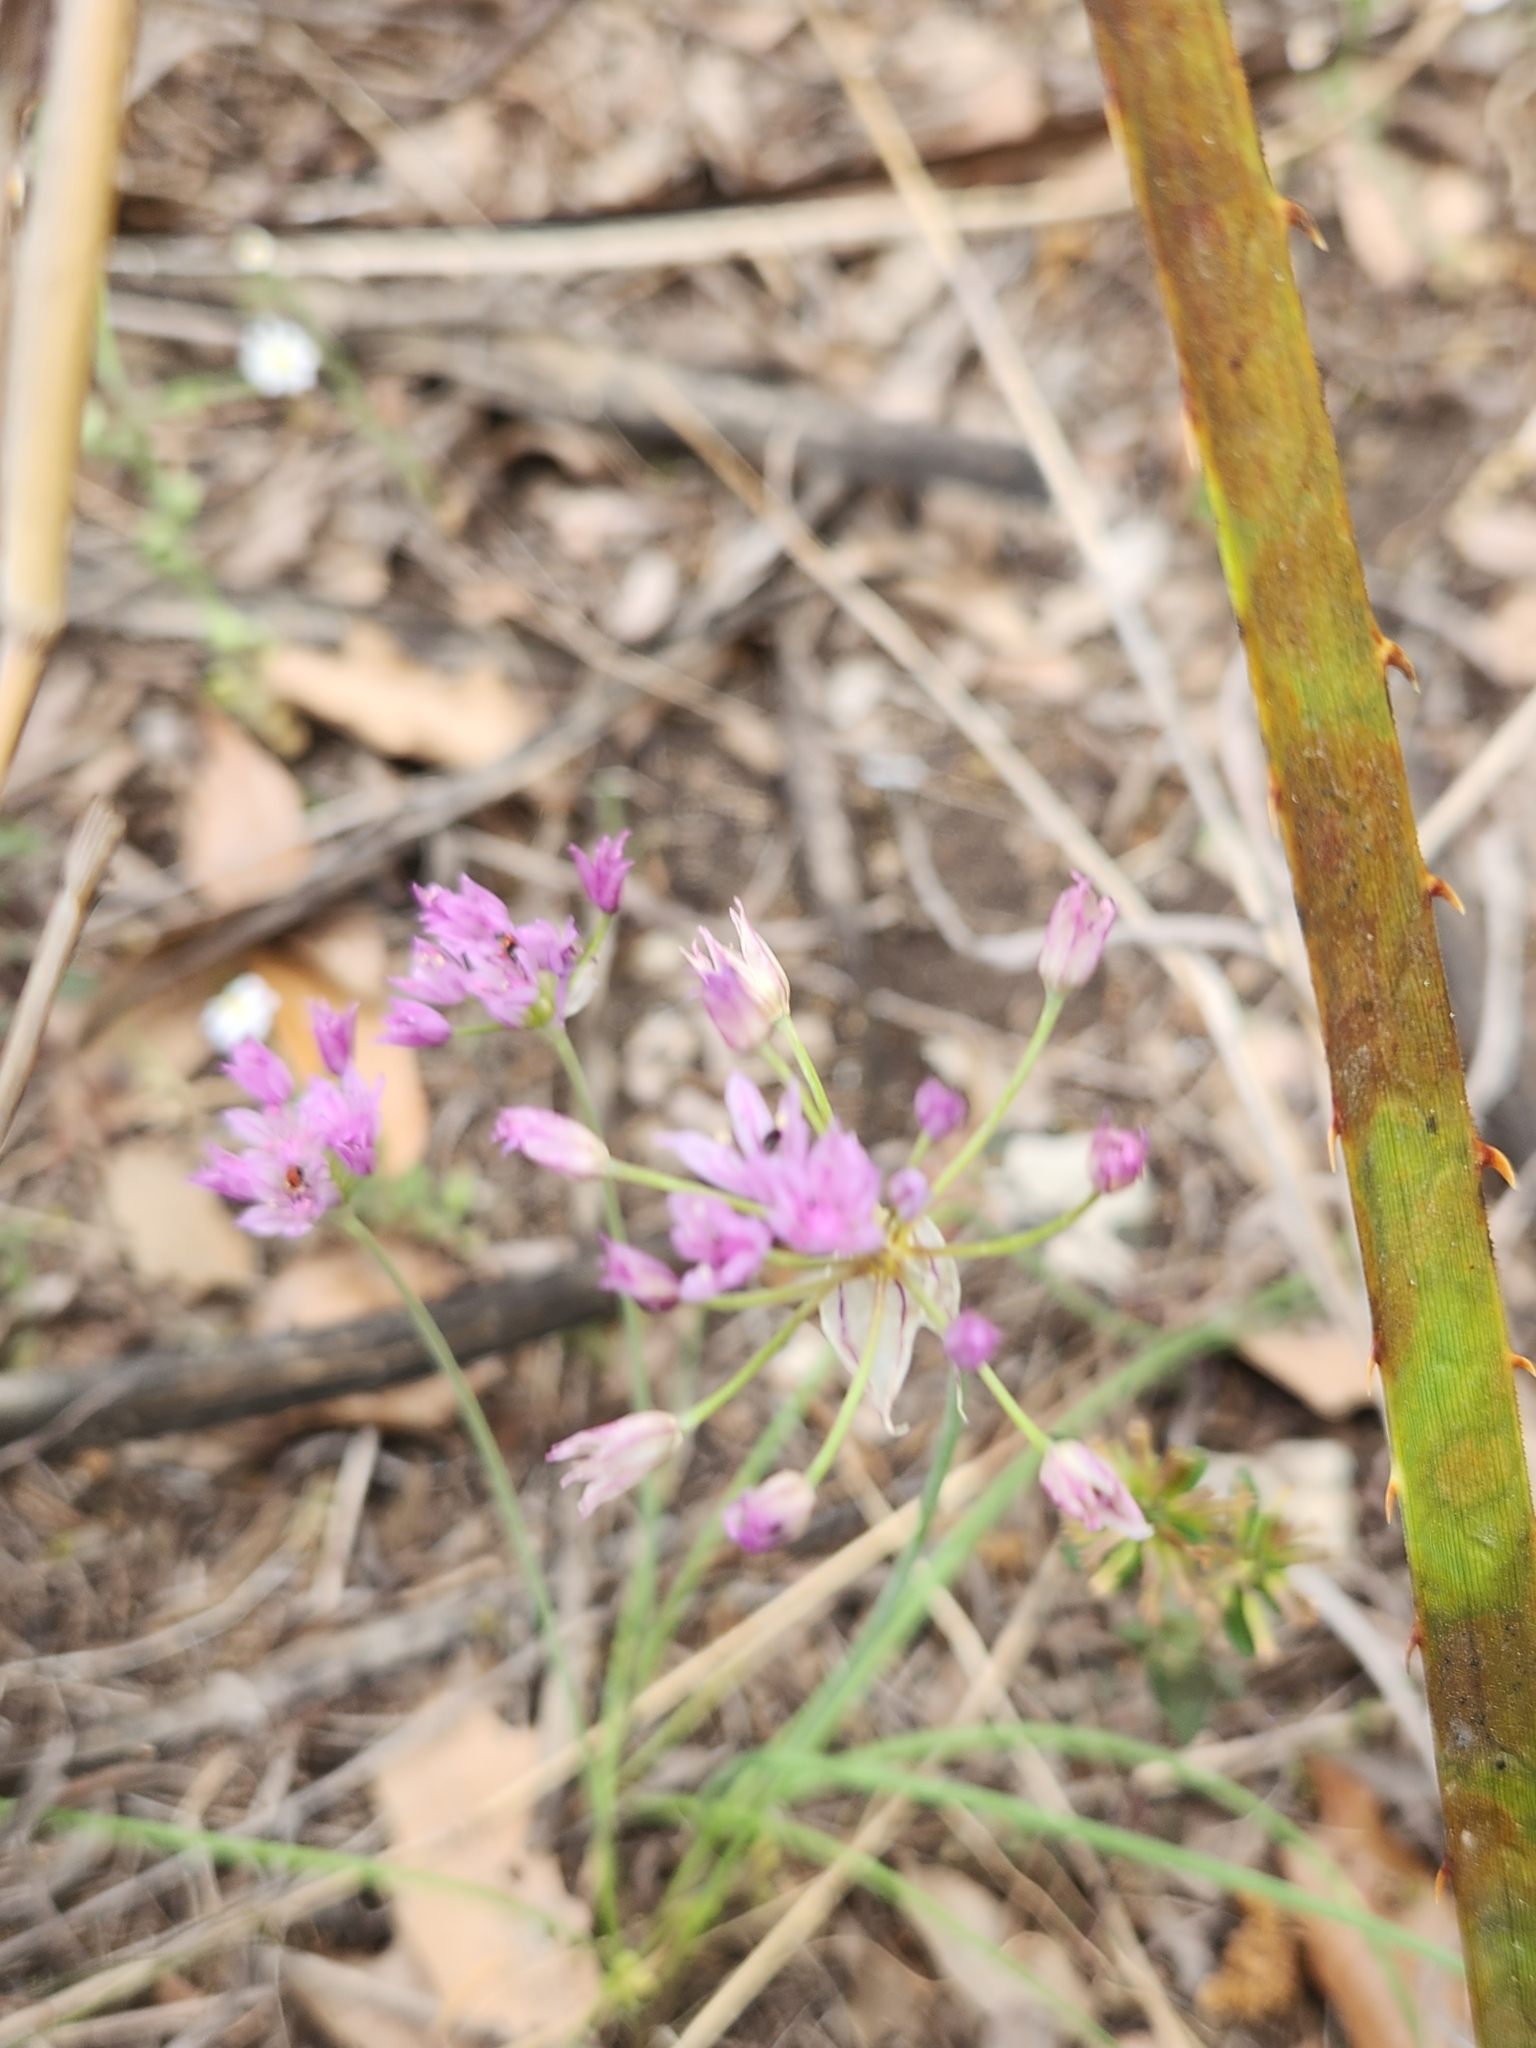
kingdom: Plantae
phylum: Tracheophyta
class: Liliopsida
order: Asparagales
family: Amaryllidaceae
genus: Allium
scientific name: Allium drummondii
